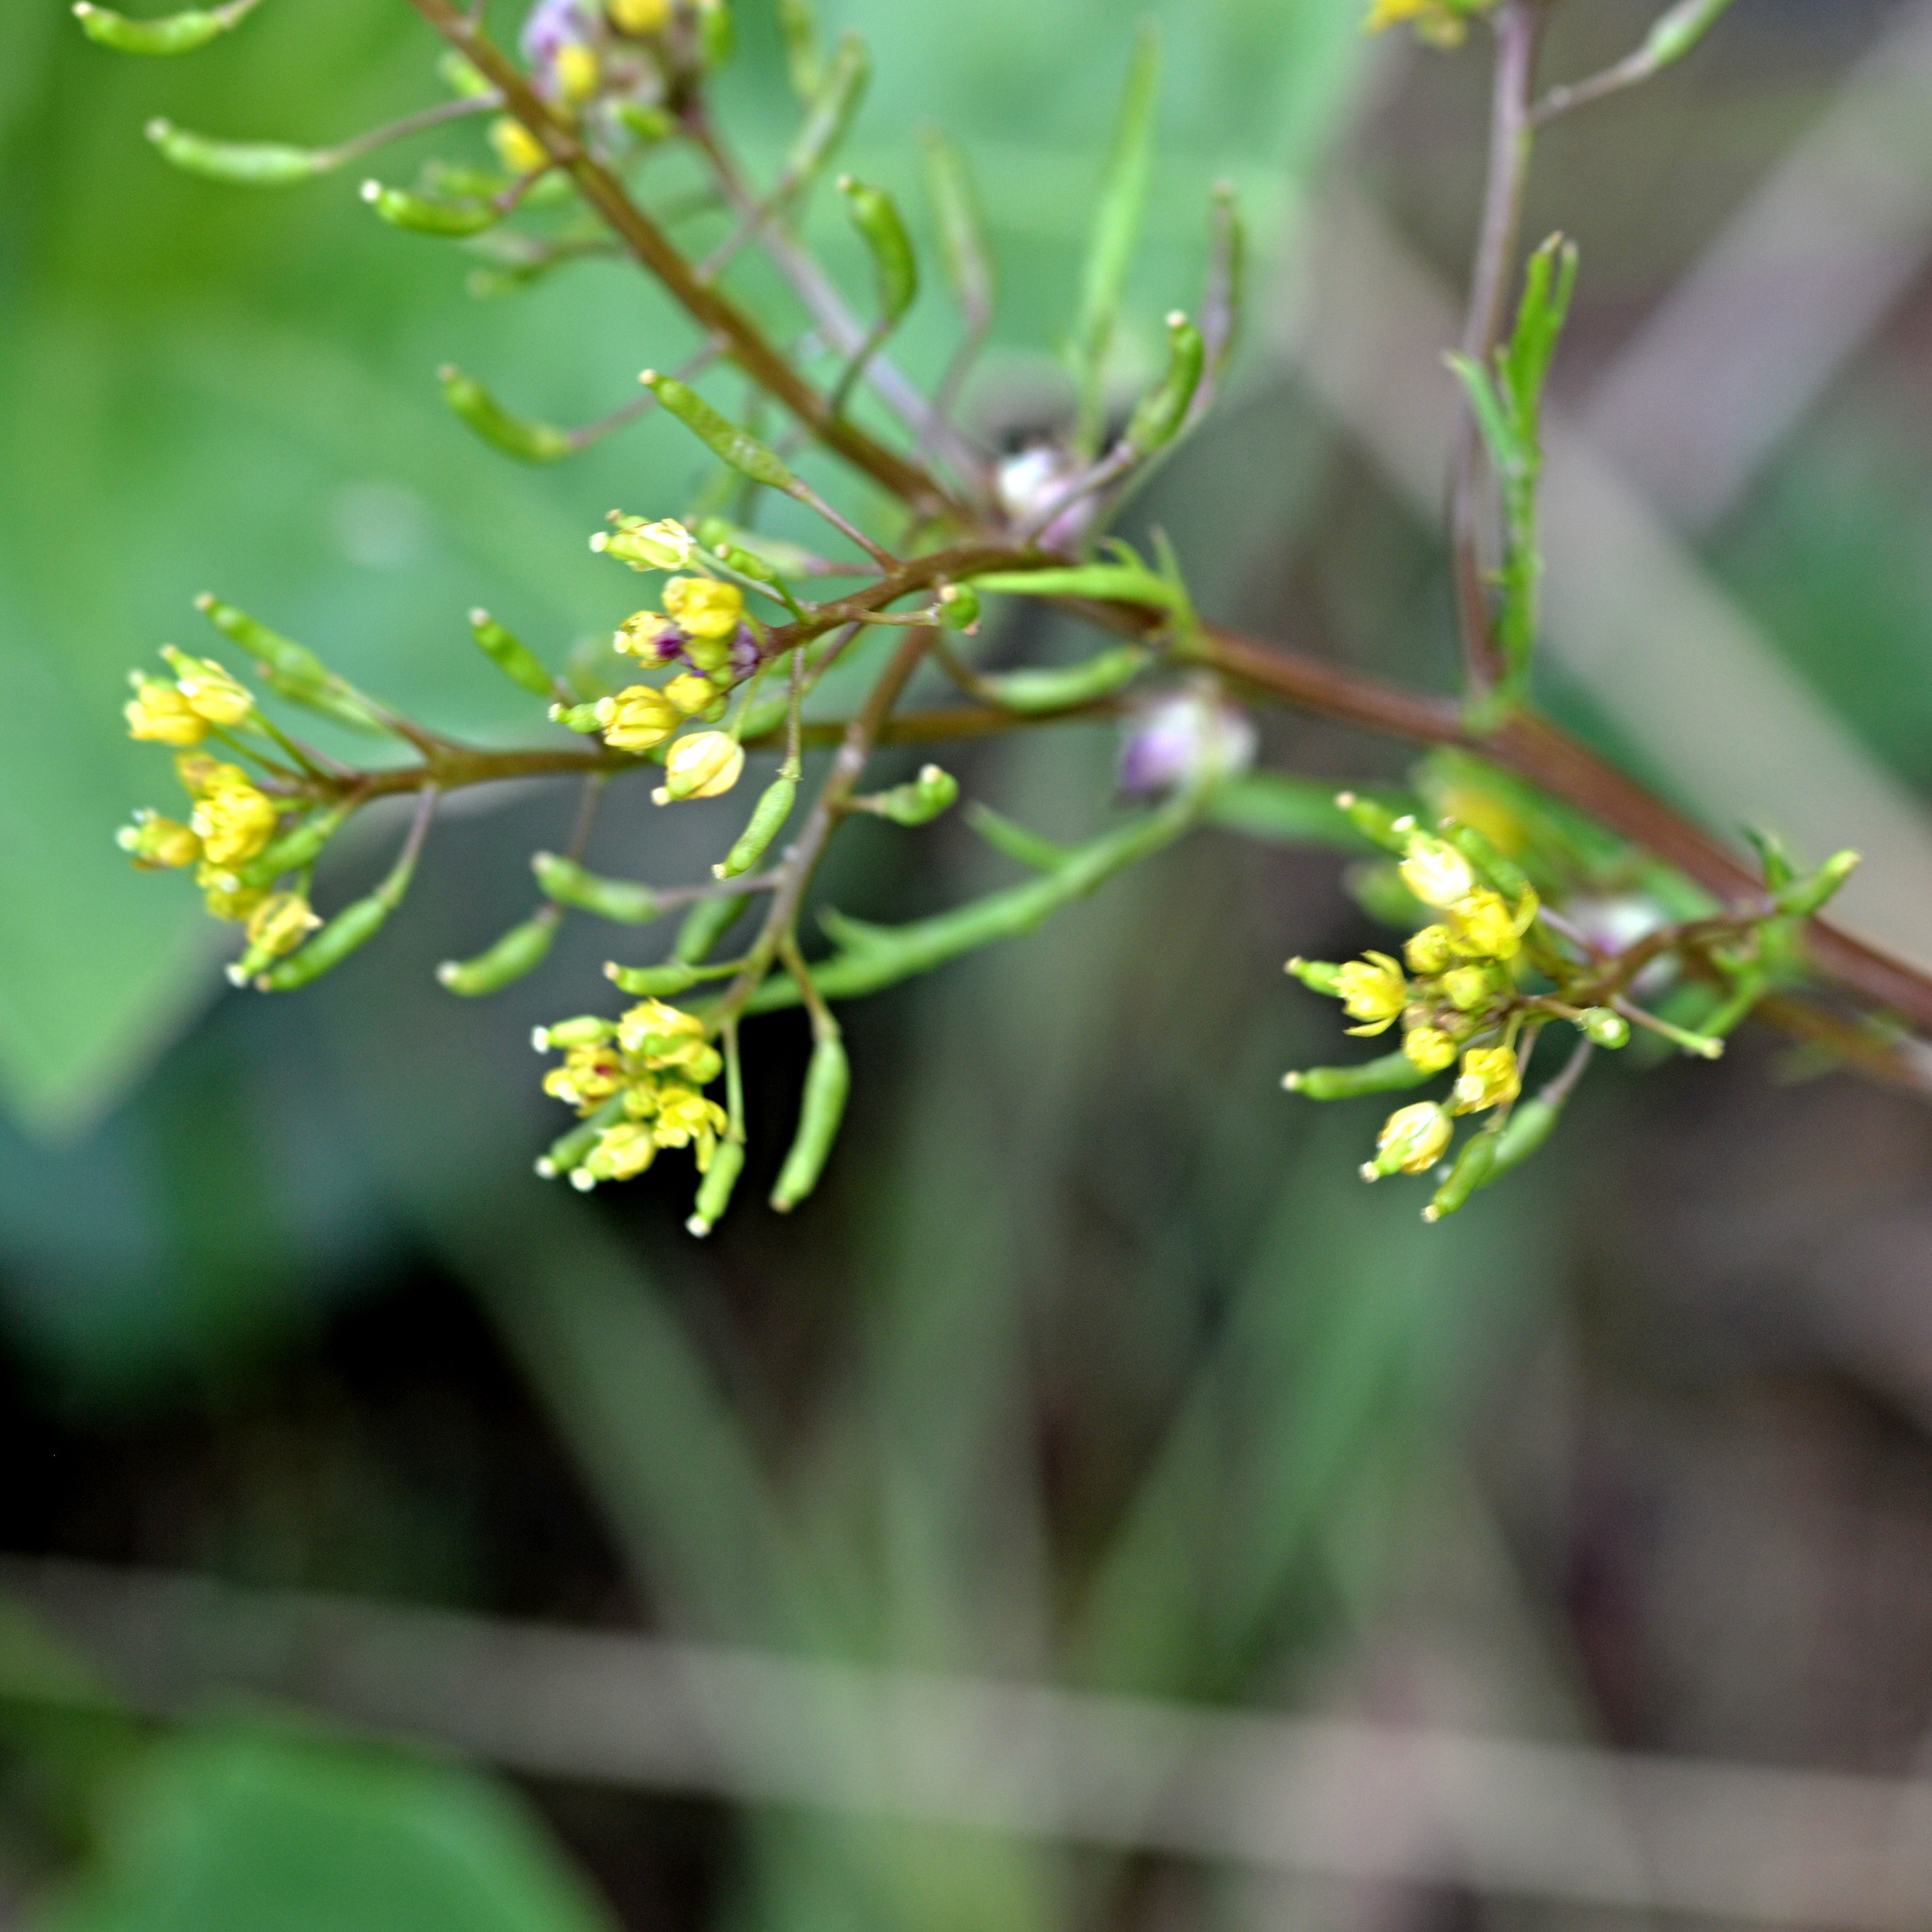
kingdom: Plantae
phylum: Tracheophyta
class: Magnoliopsida
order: Brassicales
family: Brassicaceae
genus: Rorippa
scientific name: Rorippa palustris
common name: Marsh yellow-cress
